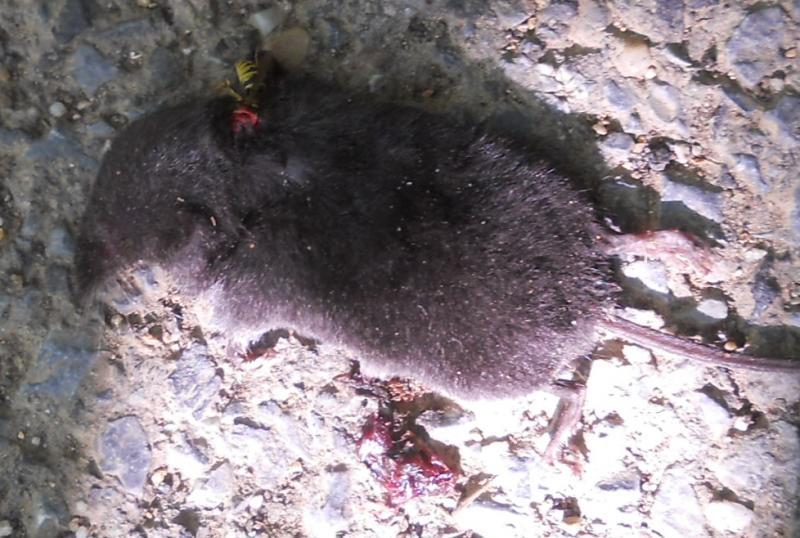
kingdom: Animalia
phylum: Chordata
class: Mammalia
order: Soricomorpha
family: Soricidae
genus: Neomys
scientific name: Neomys milleri
